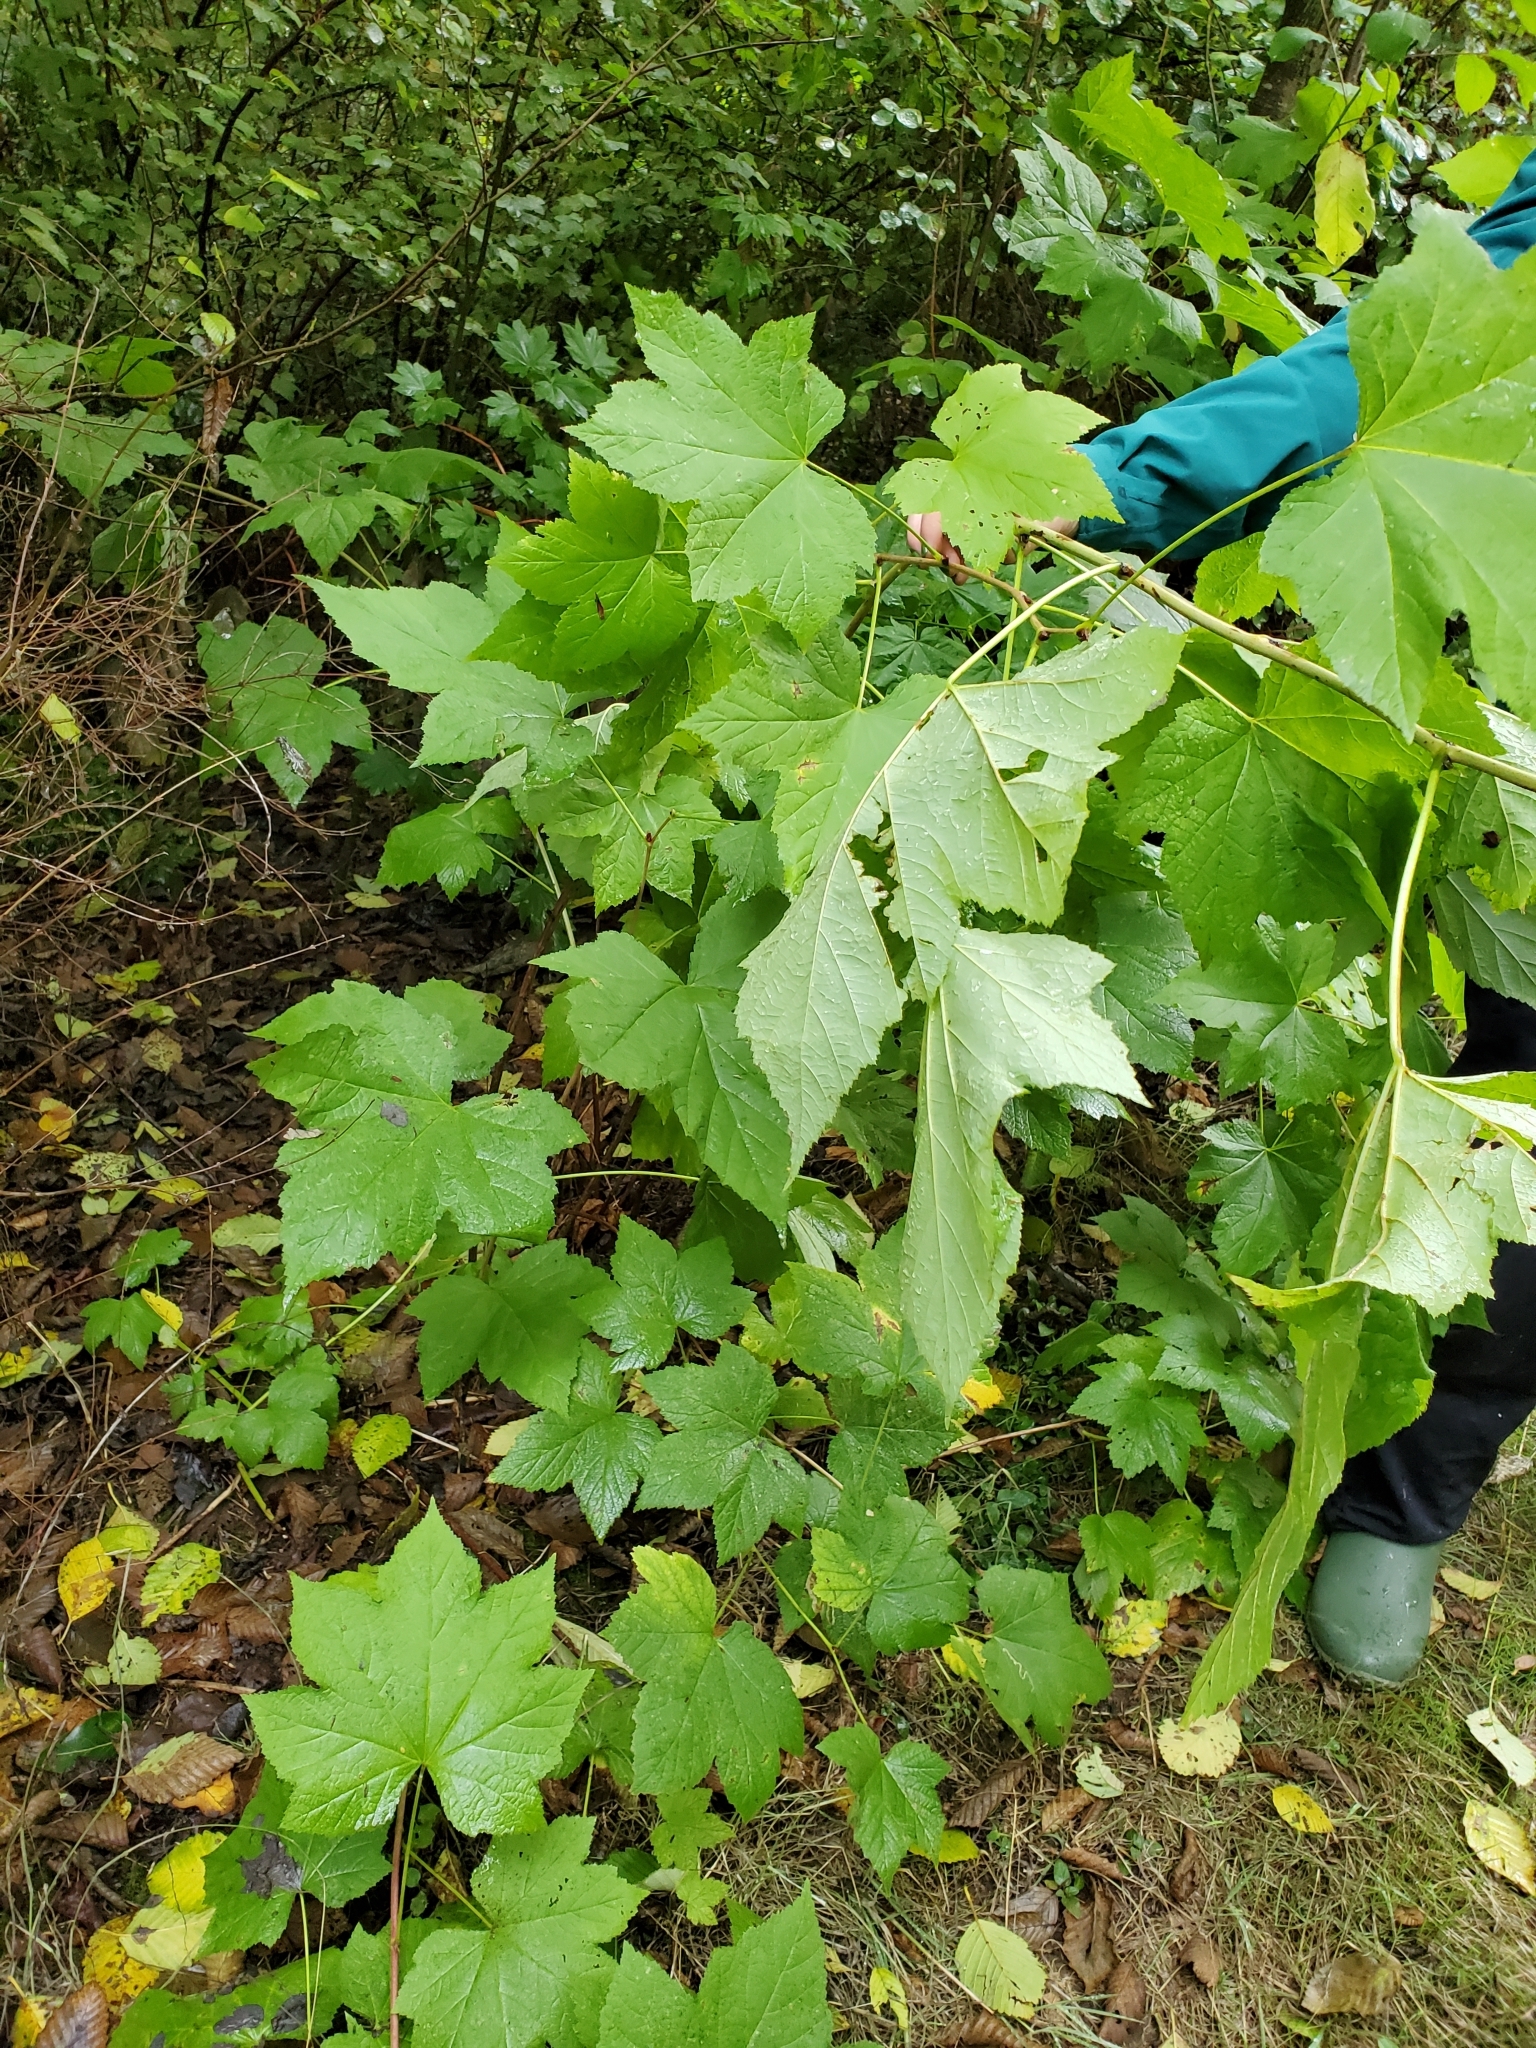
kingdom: Plantae
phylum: Tracheophyta
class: Magnoliopsida
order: Rosales
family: Rosaceae
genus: Rubus
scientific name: Rubus parviflorus
